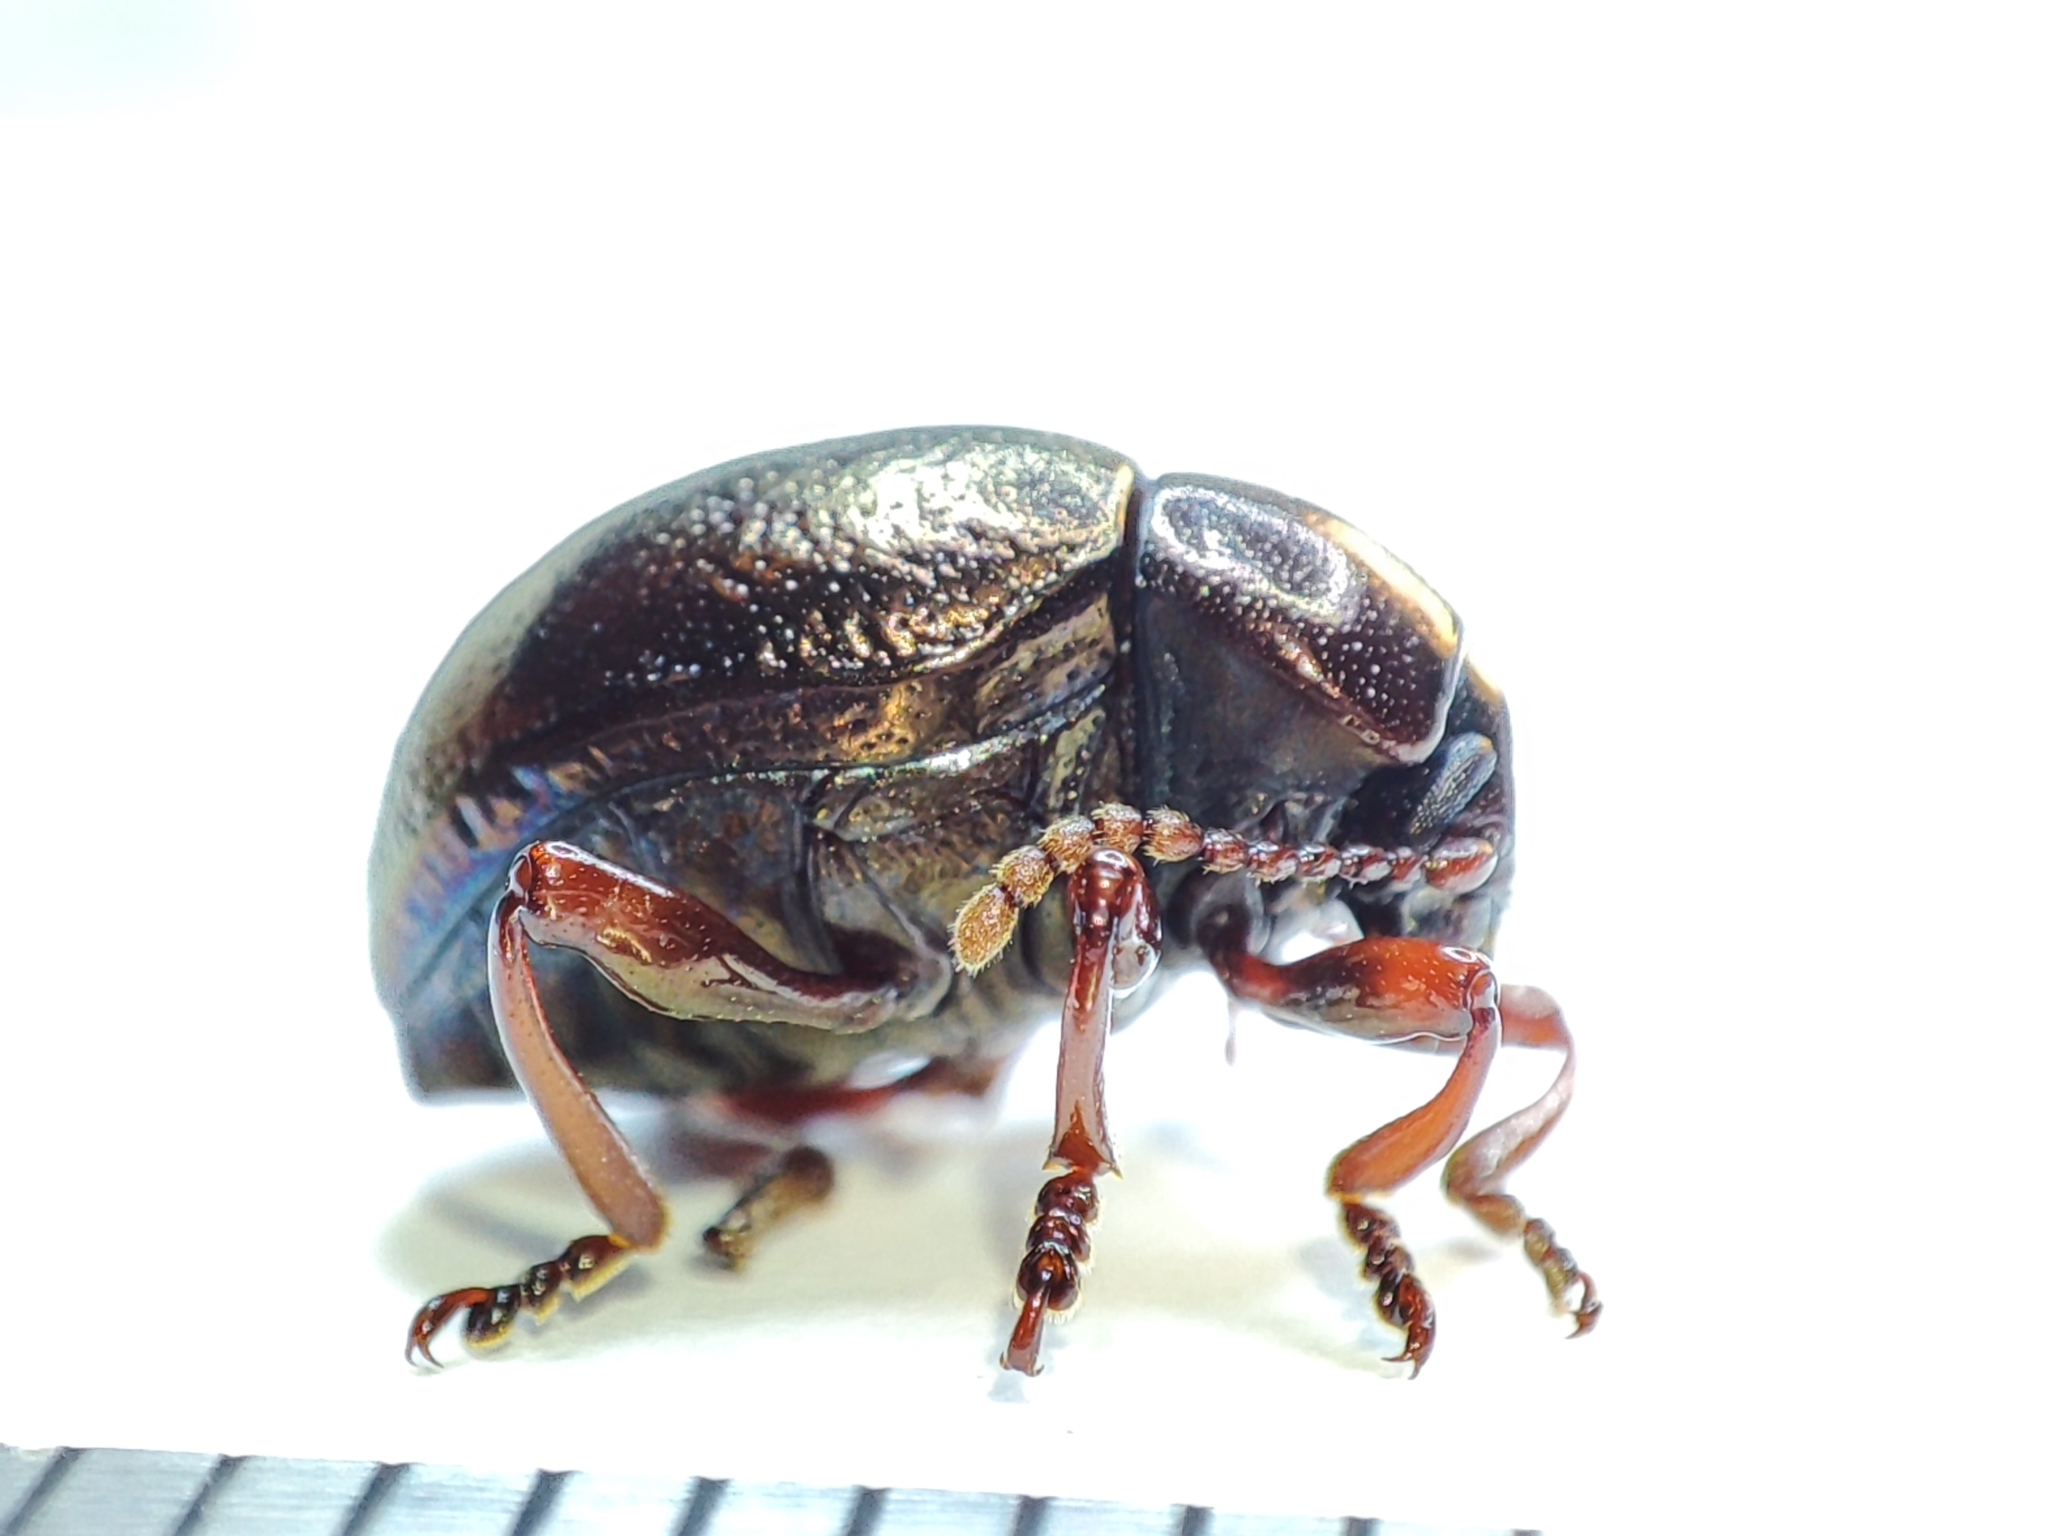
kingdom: Animalia
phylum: Arthropoda
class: Insecta
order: Coleoptera
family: Chrysomelidae
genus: Timarcha
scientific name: Timarcha metallica
